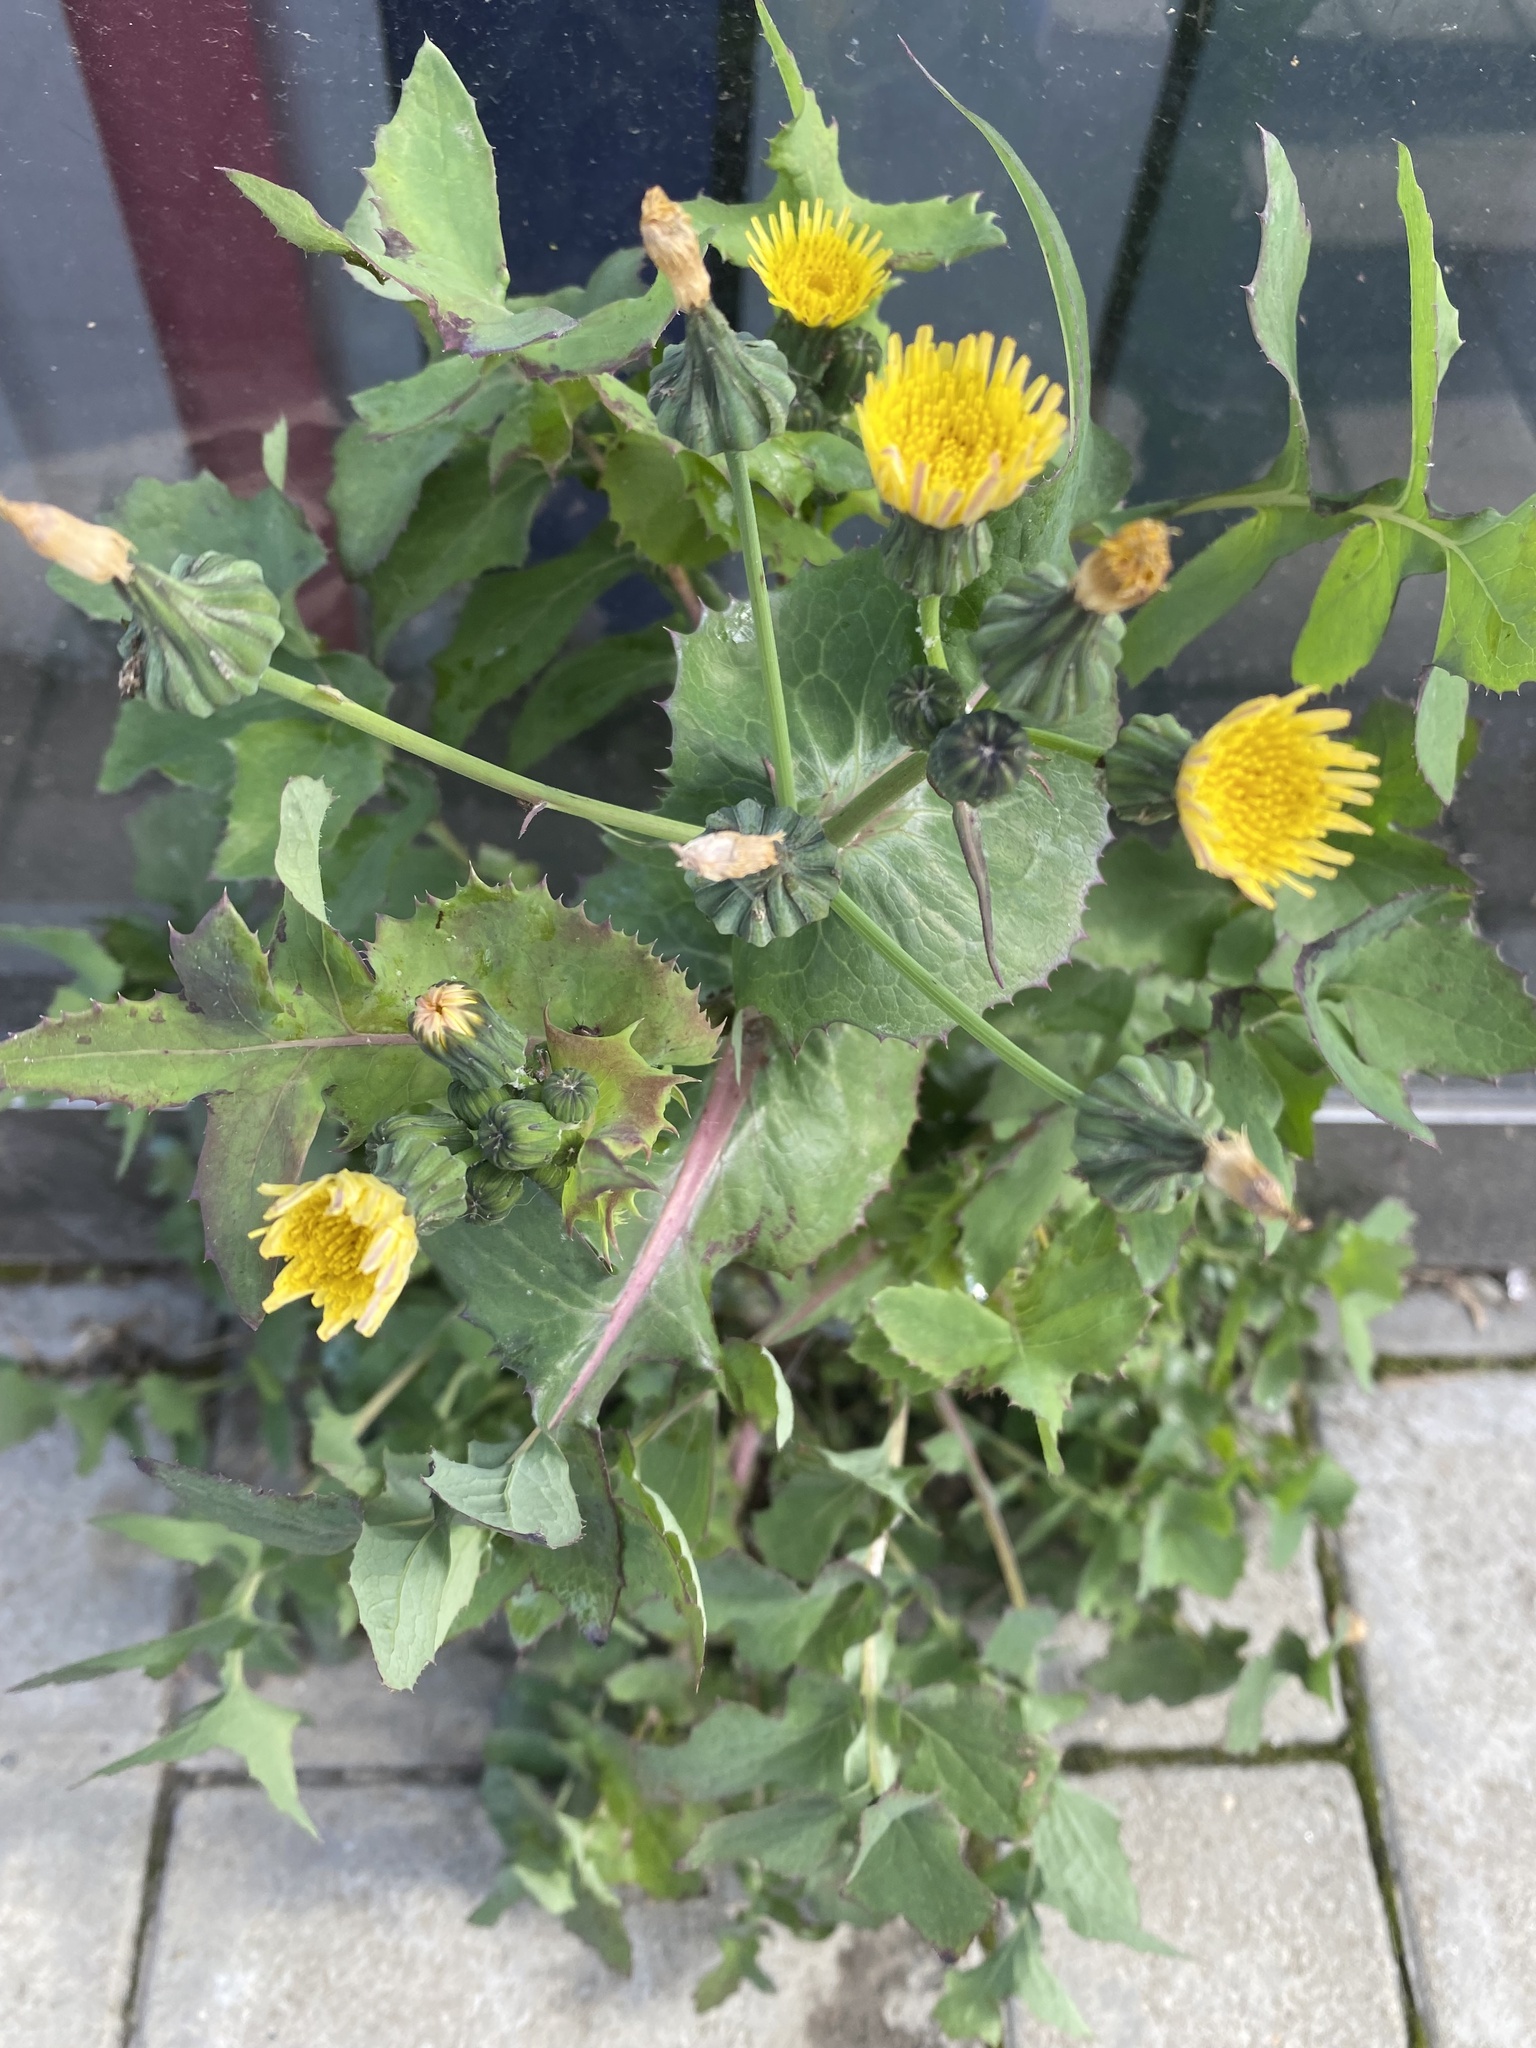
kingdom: Plantae
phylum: Tracheophyta
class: Magnoliopsida
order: Asterales
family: Asteraceae
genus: Sonchus
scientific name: Sonchus oleraceus
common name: Common sowthistle
